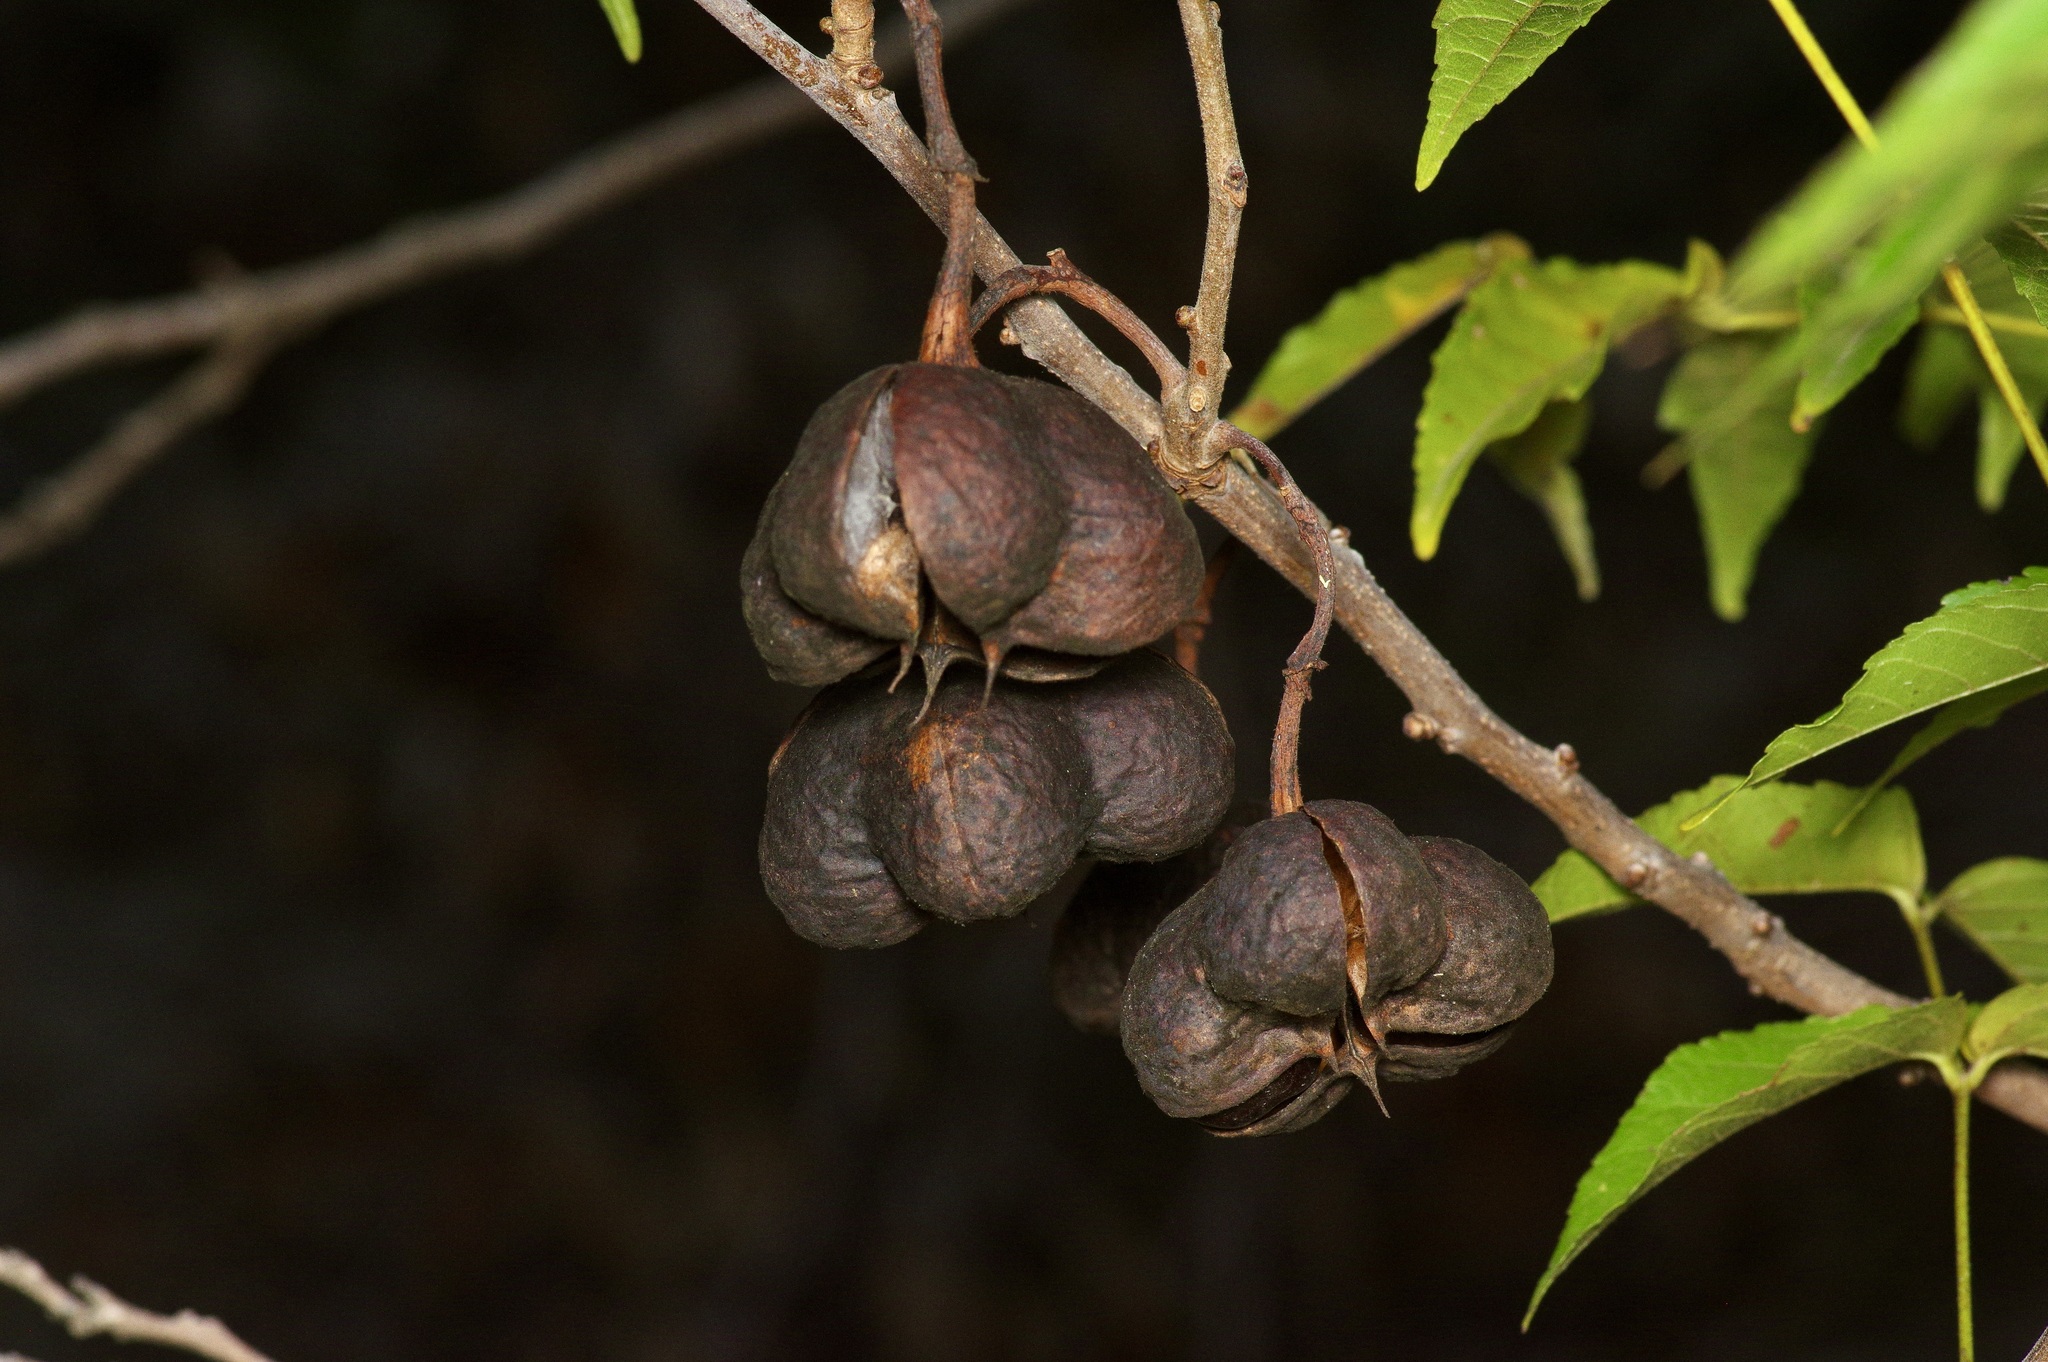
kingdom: Plantae
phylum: Tracheophyta
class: Magnoliopsida
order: Sapindales
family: Sapindaceae
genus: Ungnadia
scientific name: Ungnadia speciosa
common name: Texas-buckeye
